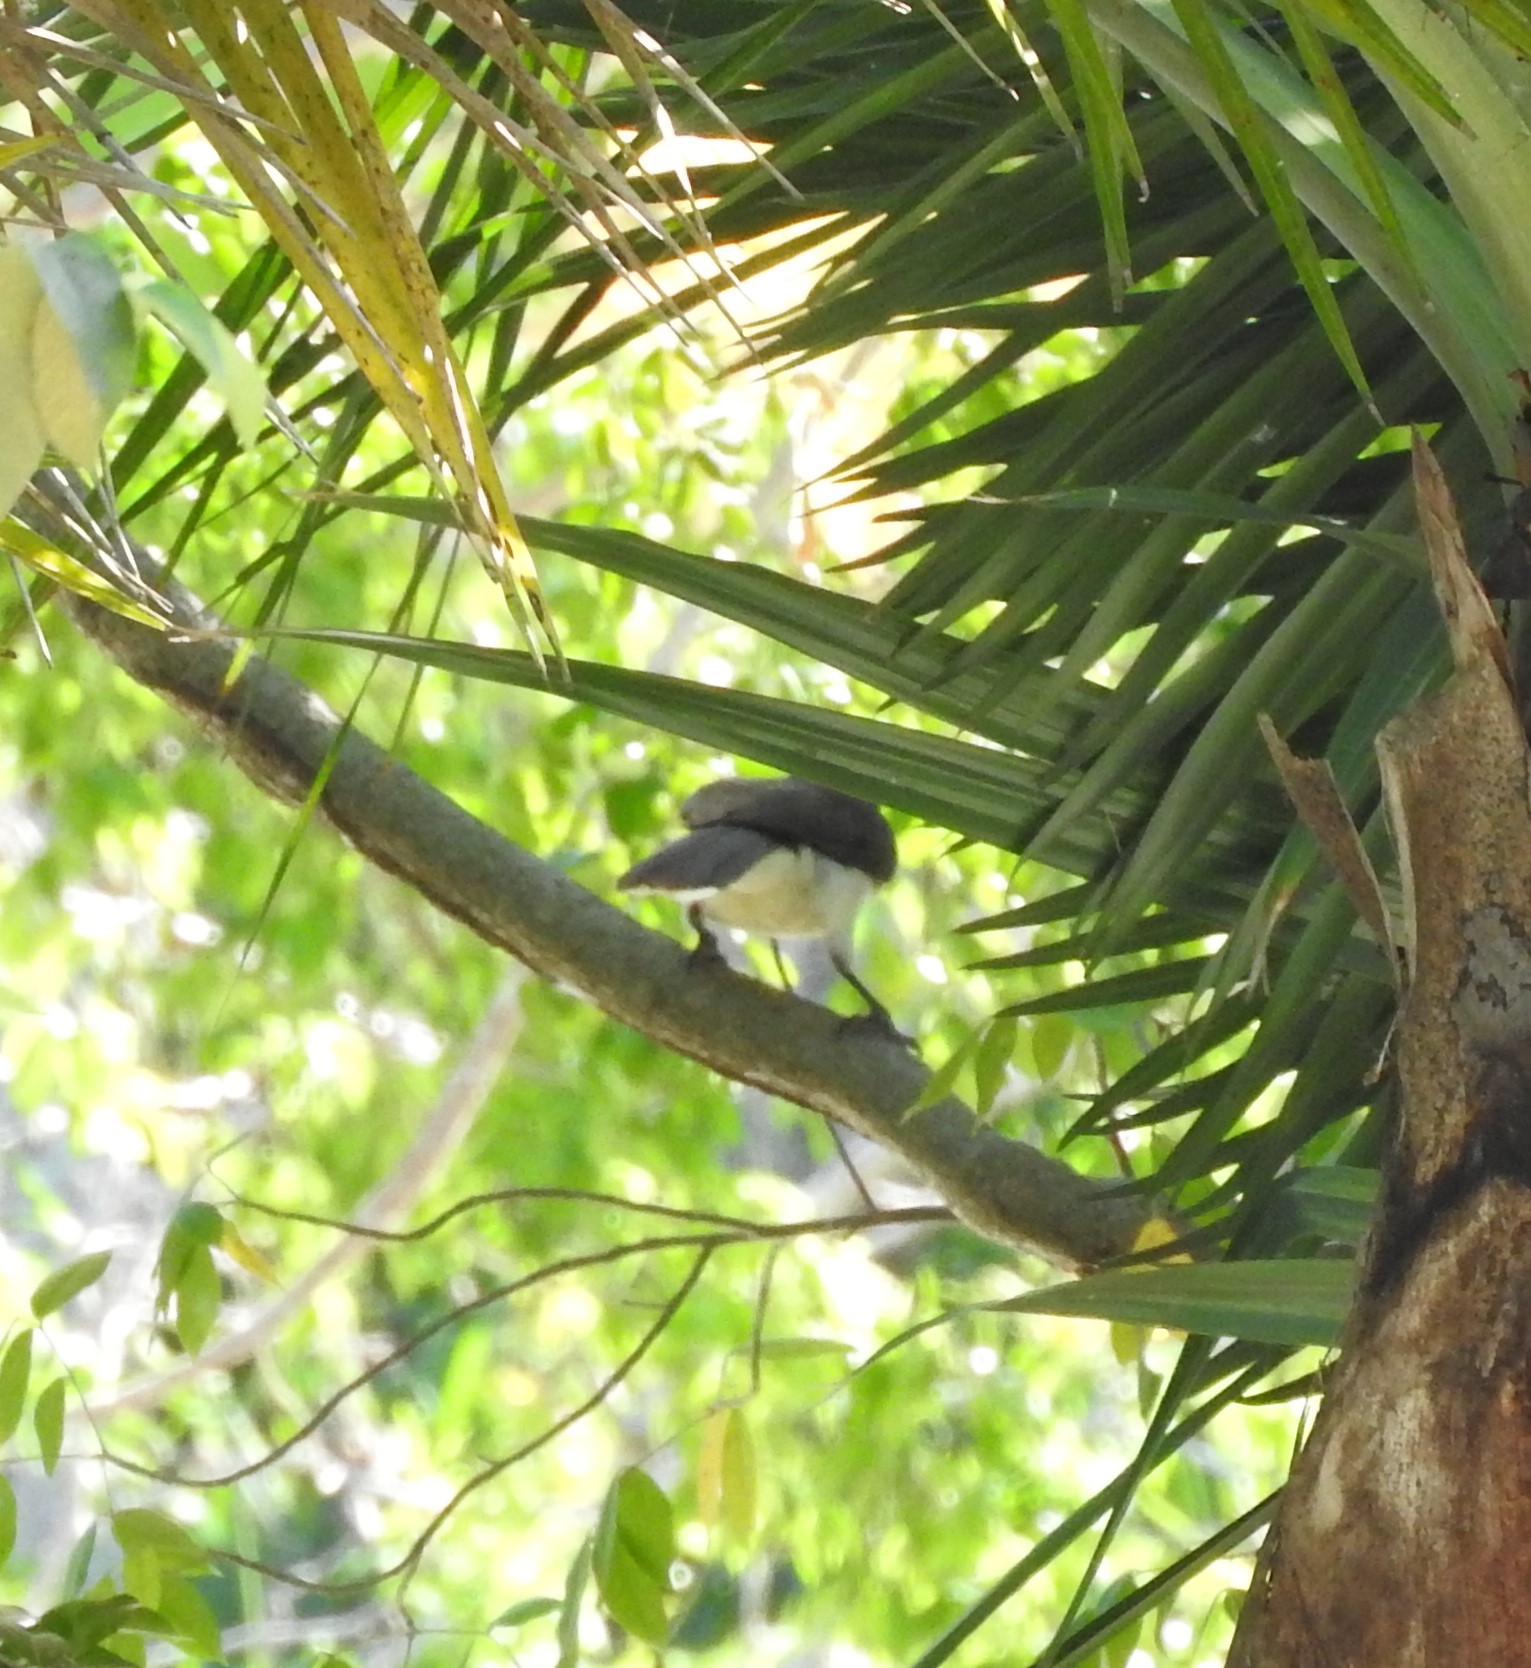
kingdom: Animalia
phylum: Chordata
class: Aves
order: Passeriformes
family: Corvidae
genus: Psilorhinus
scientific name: Psilorhinus morio
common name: Brown jay
